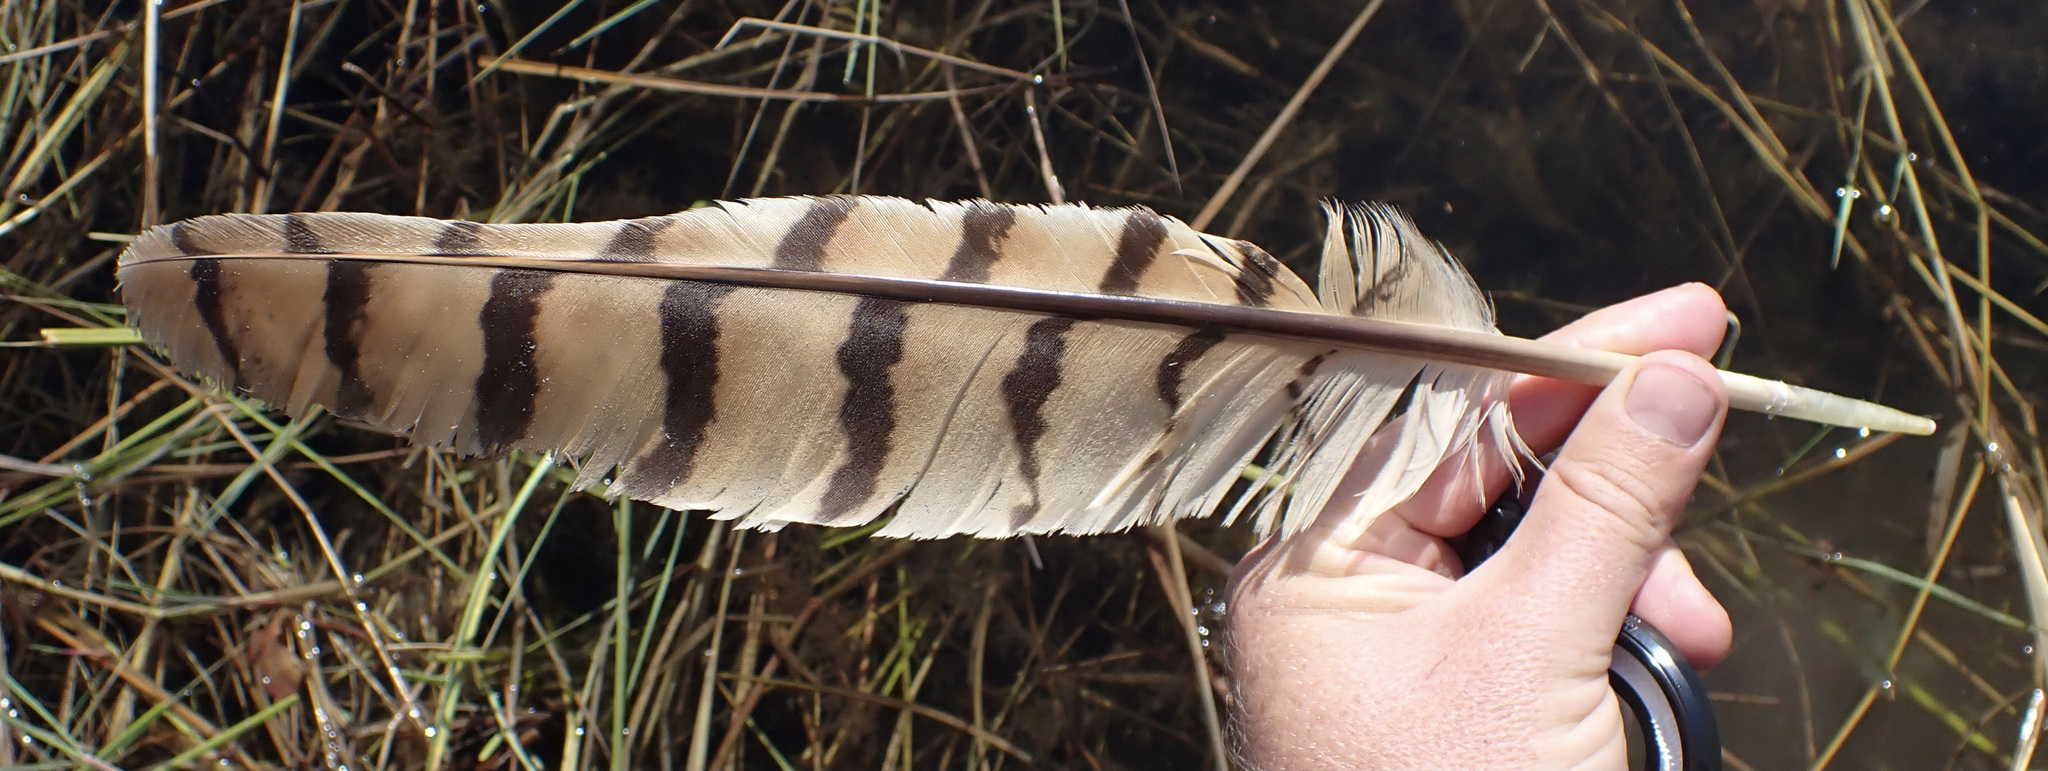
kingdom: Animalia
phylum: Chordata
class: Aves
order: Strigiformes
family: Strigidae
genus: Scotopelia
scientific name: Scotopelia peli
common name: Pel's fishing owl
